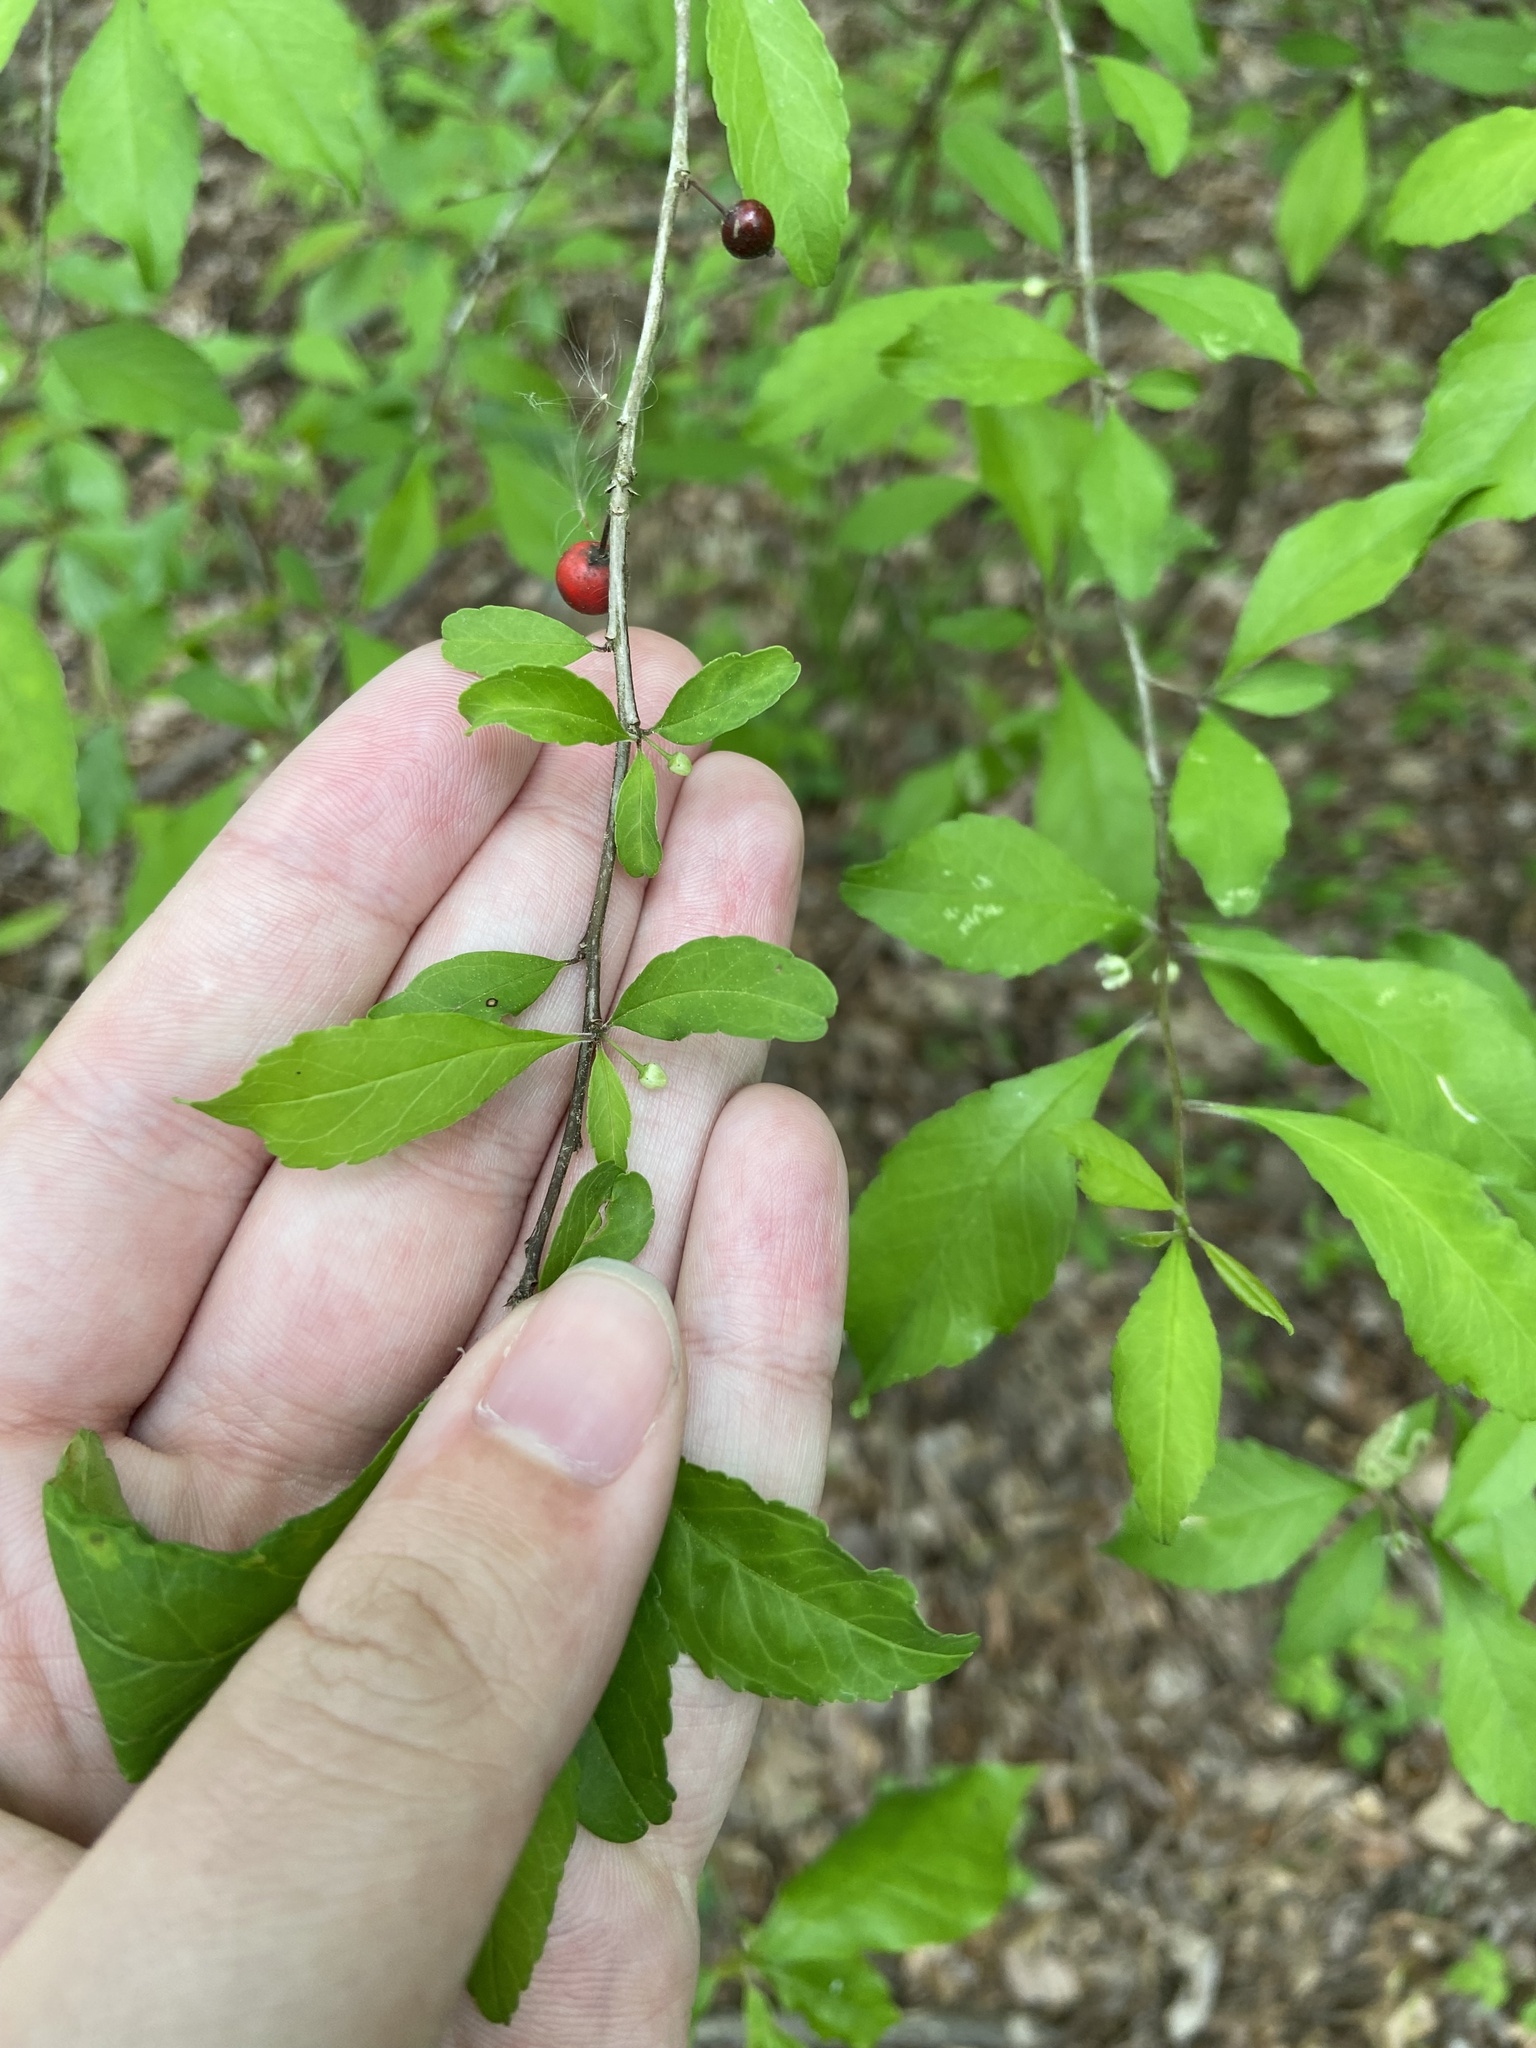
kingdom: Plantae
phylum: Tracheophyta
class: Magnoliopsida
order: Aquifoliales
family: Aquifoliaceae
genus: Ilex
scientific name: Ilex decidua
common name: Possum-haw
